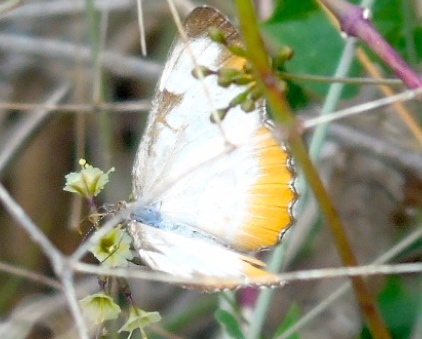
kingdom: Animalia
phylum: Arthropoda
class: Insecta
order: Lepidoptera
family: Nymphalidae
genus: Mestra
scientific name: Mestra amymone
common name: Common mestra
